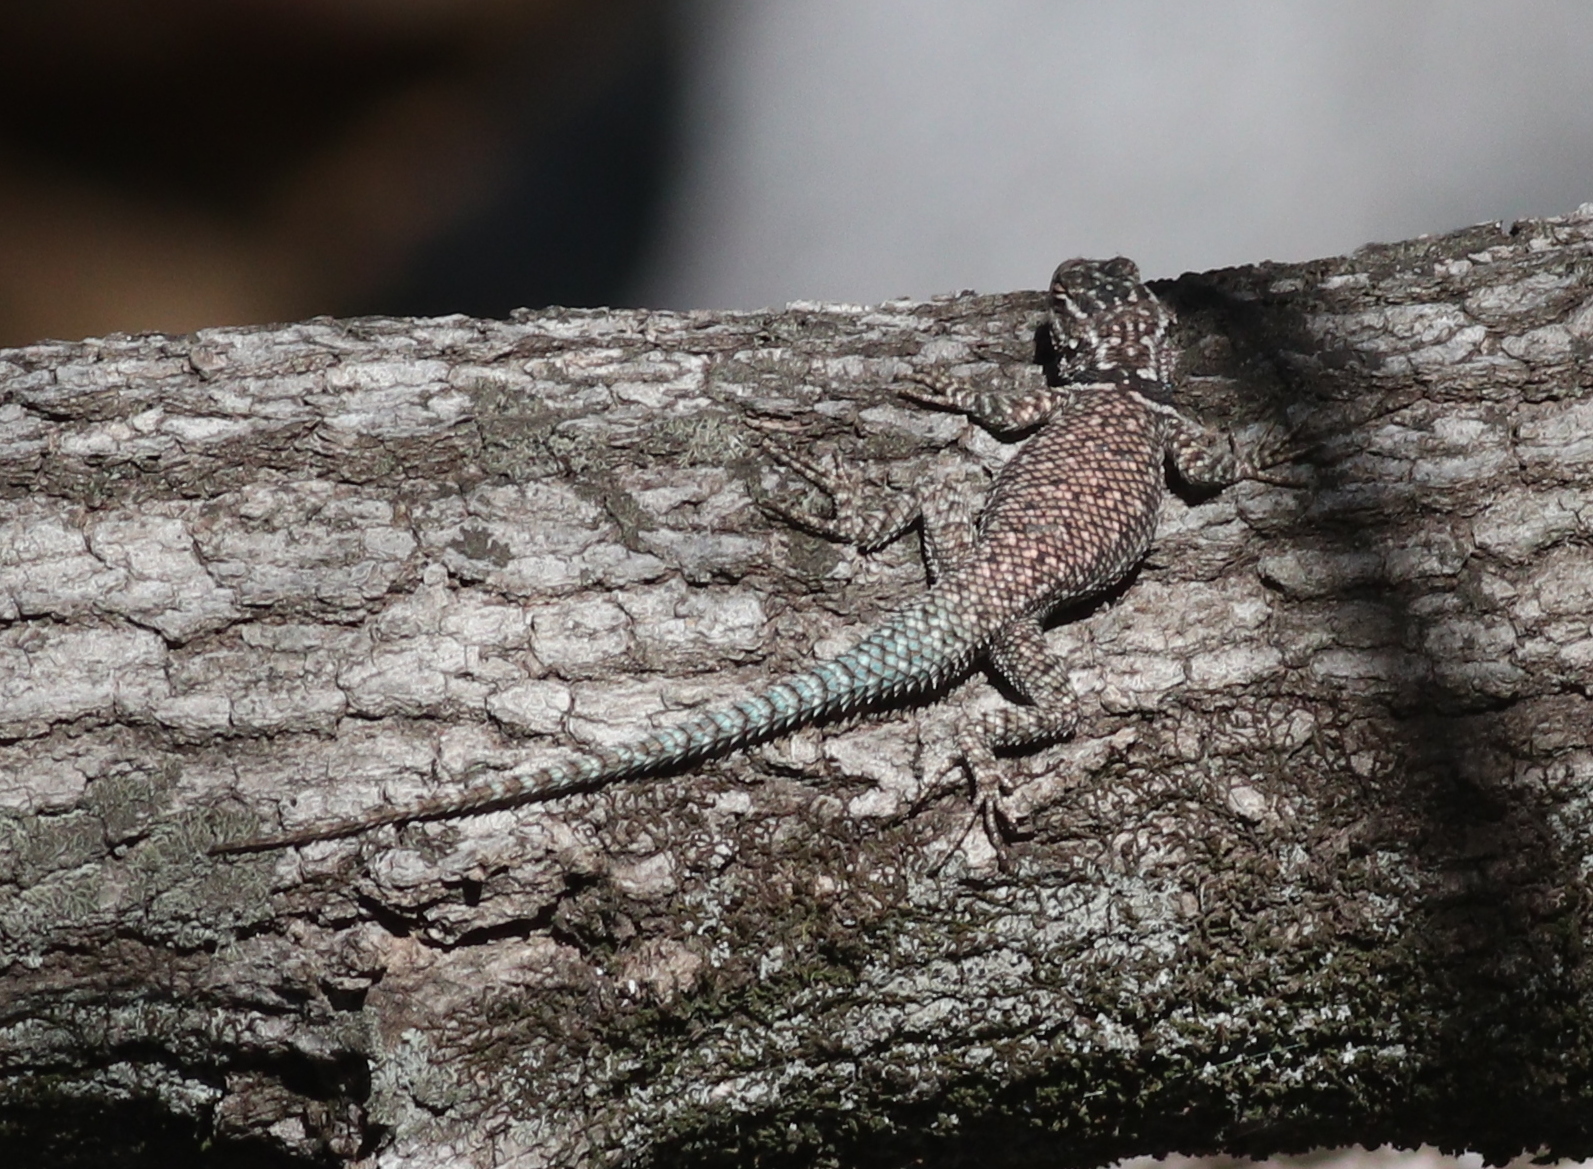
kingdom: Animalia
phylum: Chordata
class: Squamata
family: Phrynosomatidae
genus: Sceloporus
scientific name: Sceloporus jarrovii
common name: Yarrow's spiny lizard
